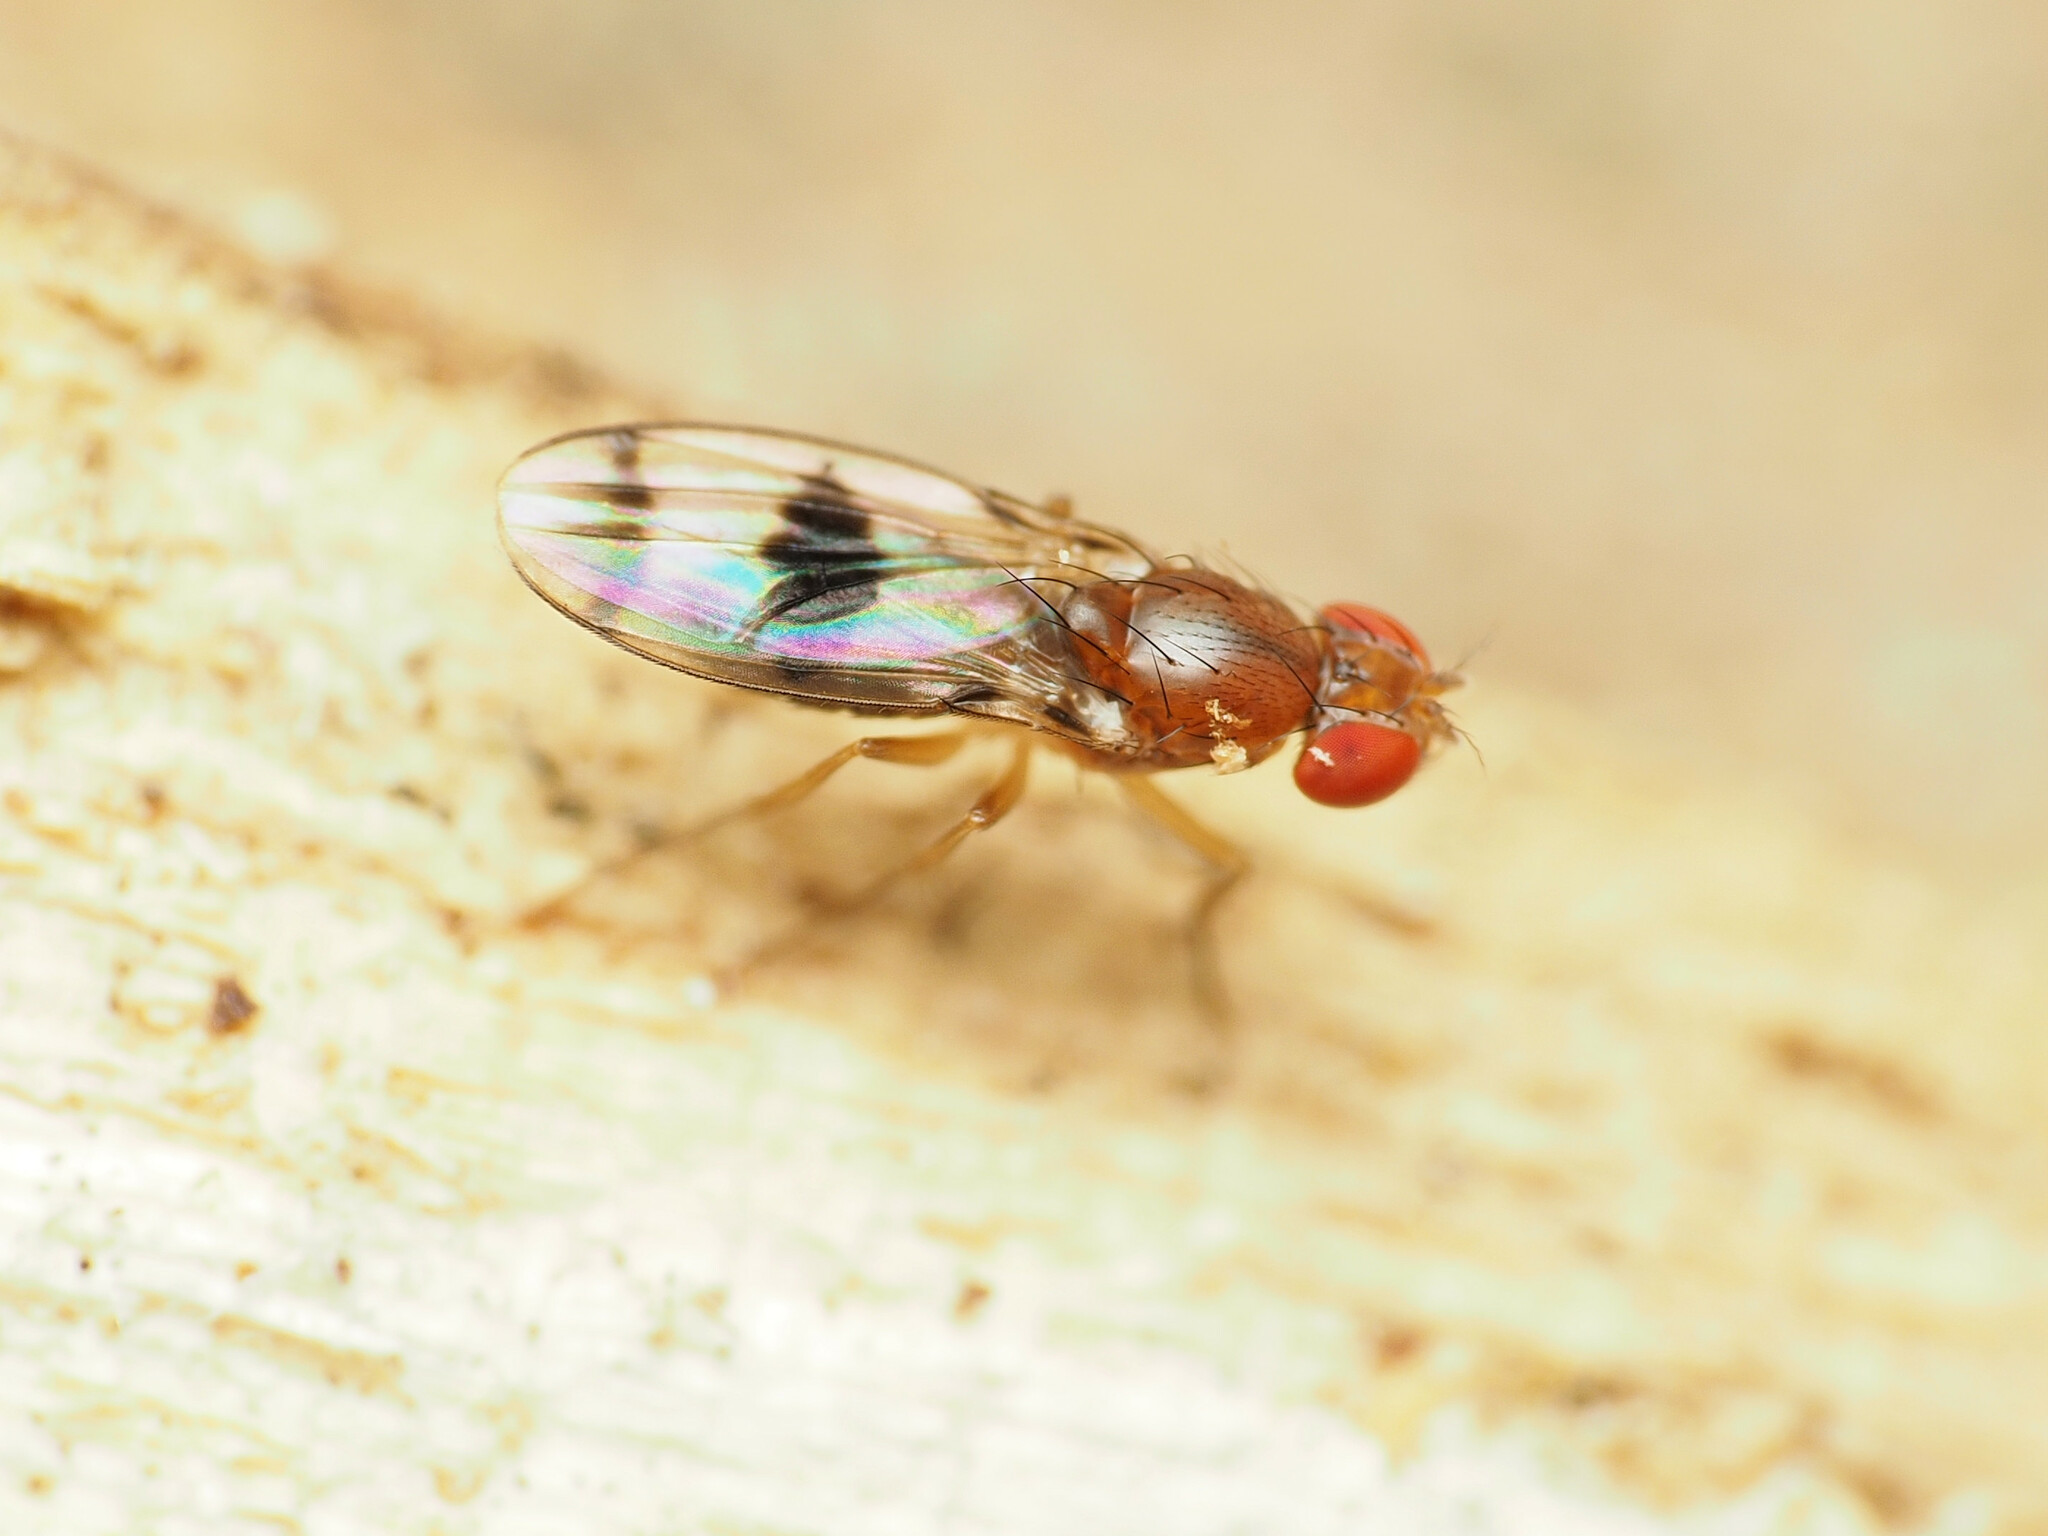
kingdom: Animalia
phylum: Arthropoda
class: Insecta
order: Diptera
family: Drosophilidae
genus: Chymomyza
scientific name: Chymomyza amoena
